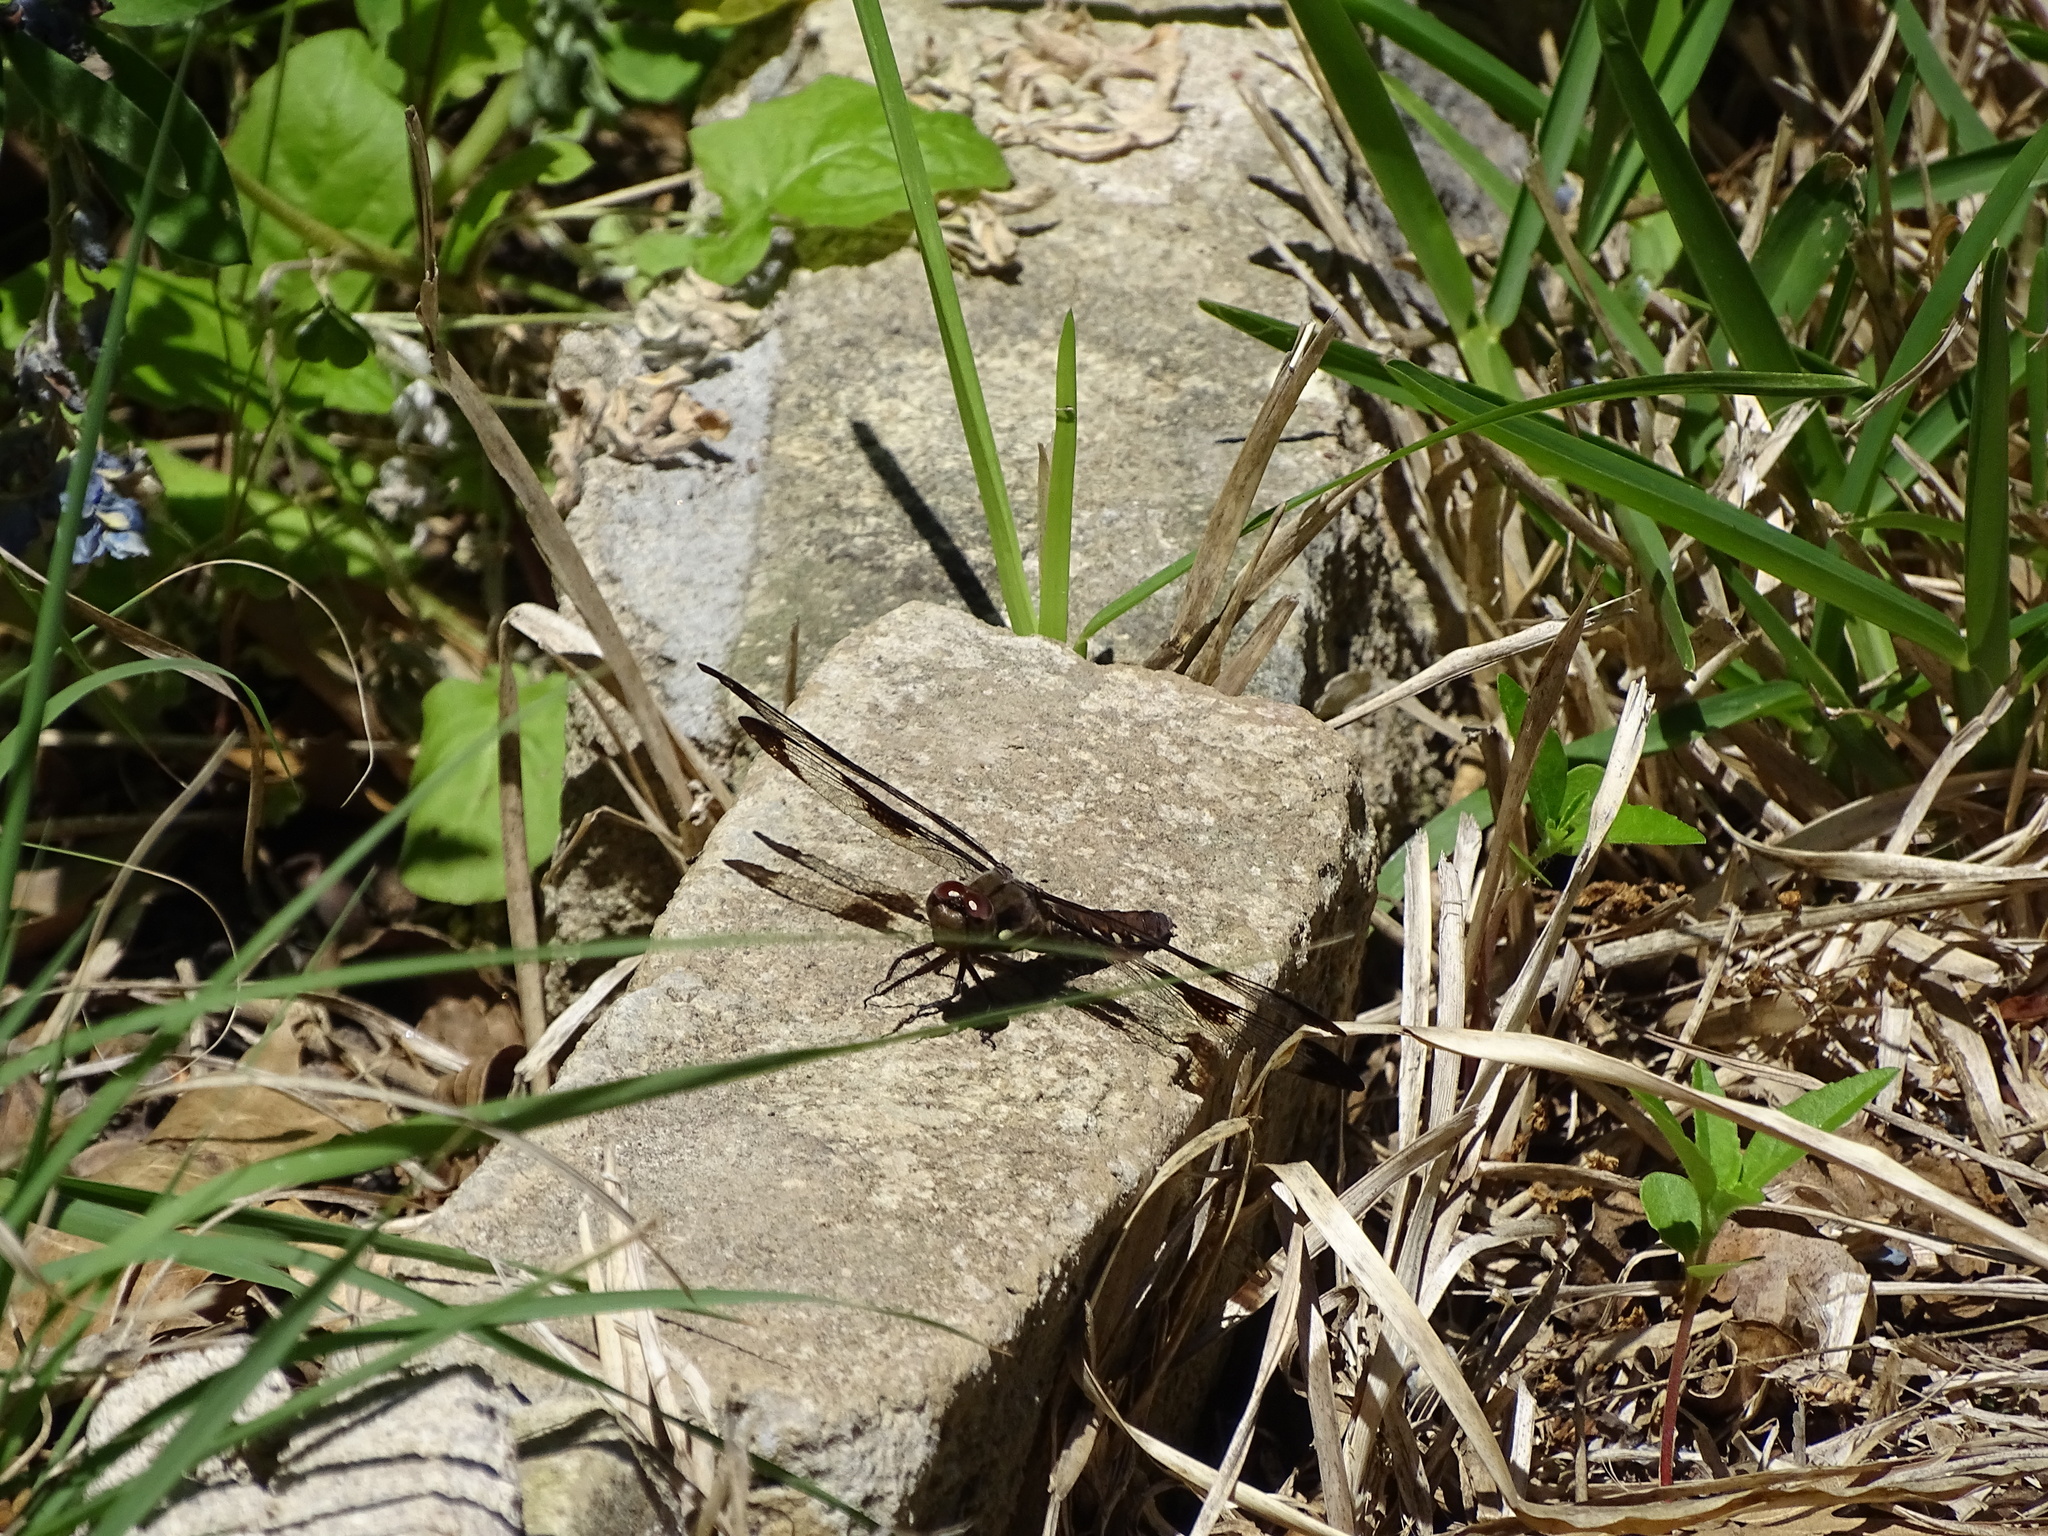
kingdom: Animalia
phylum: Arthropoda
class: Insecta
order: Odonata
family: Libellulidae
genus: Plathemis
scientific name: Plathemis lydia
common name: Common whitetail
